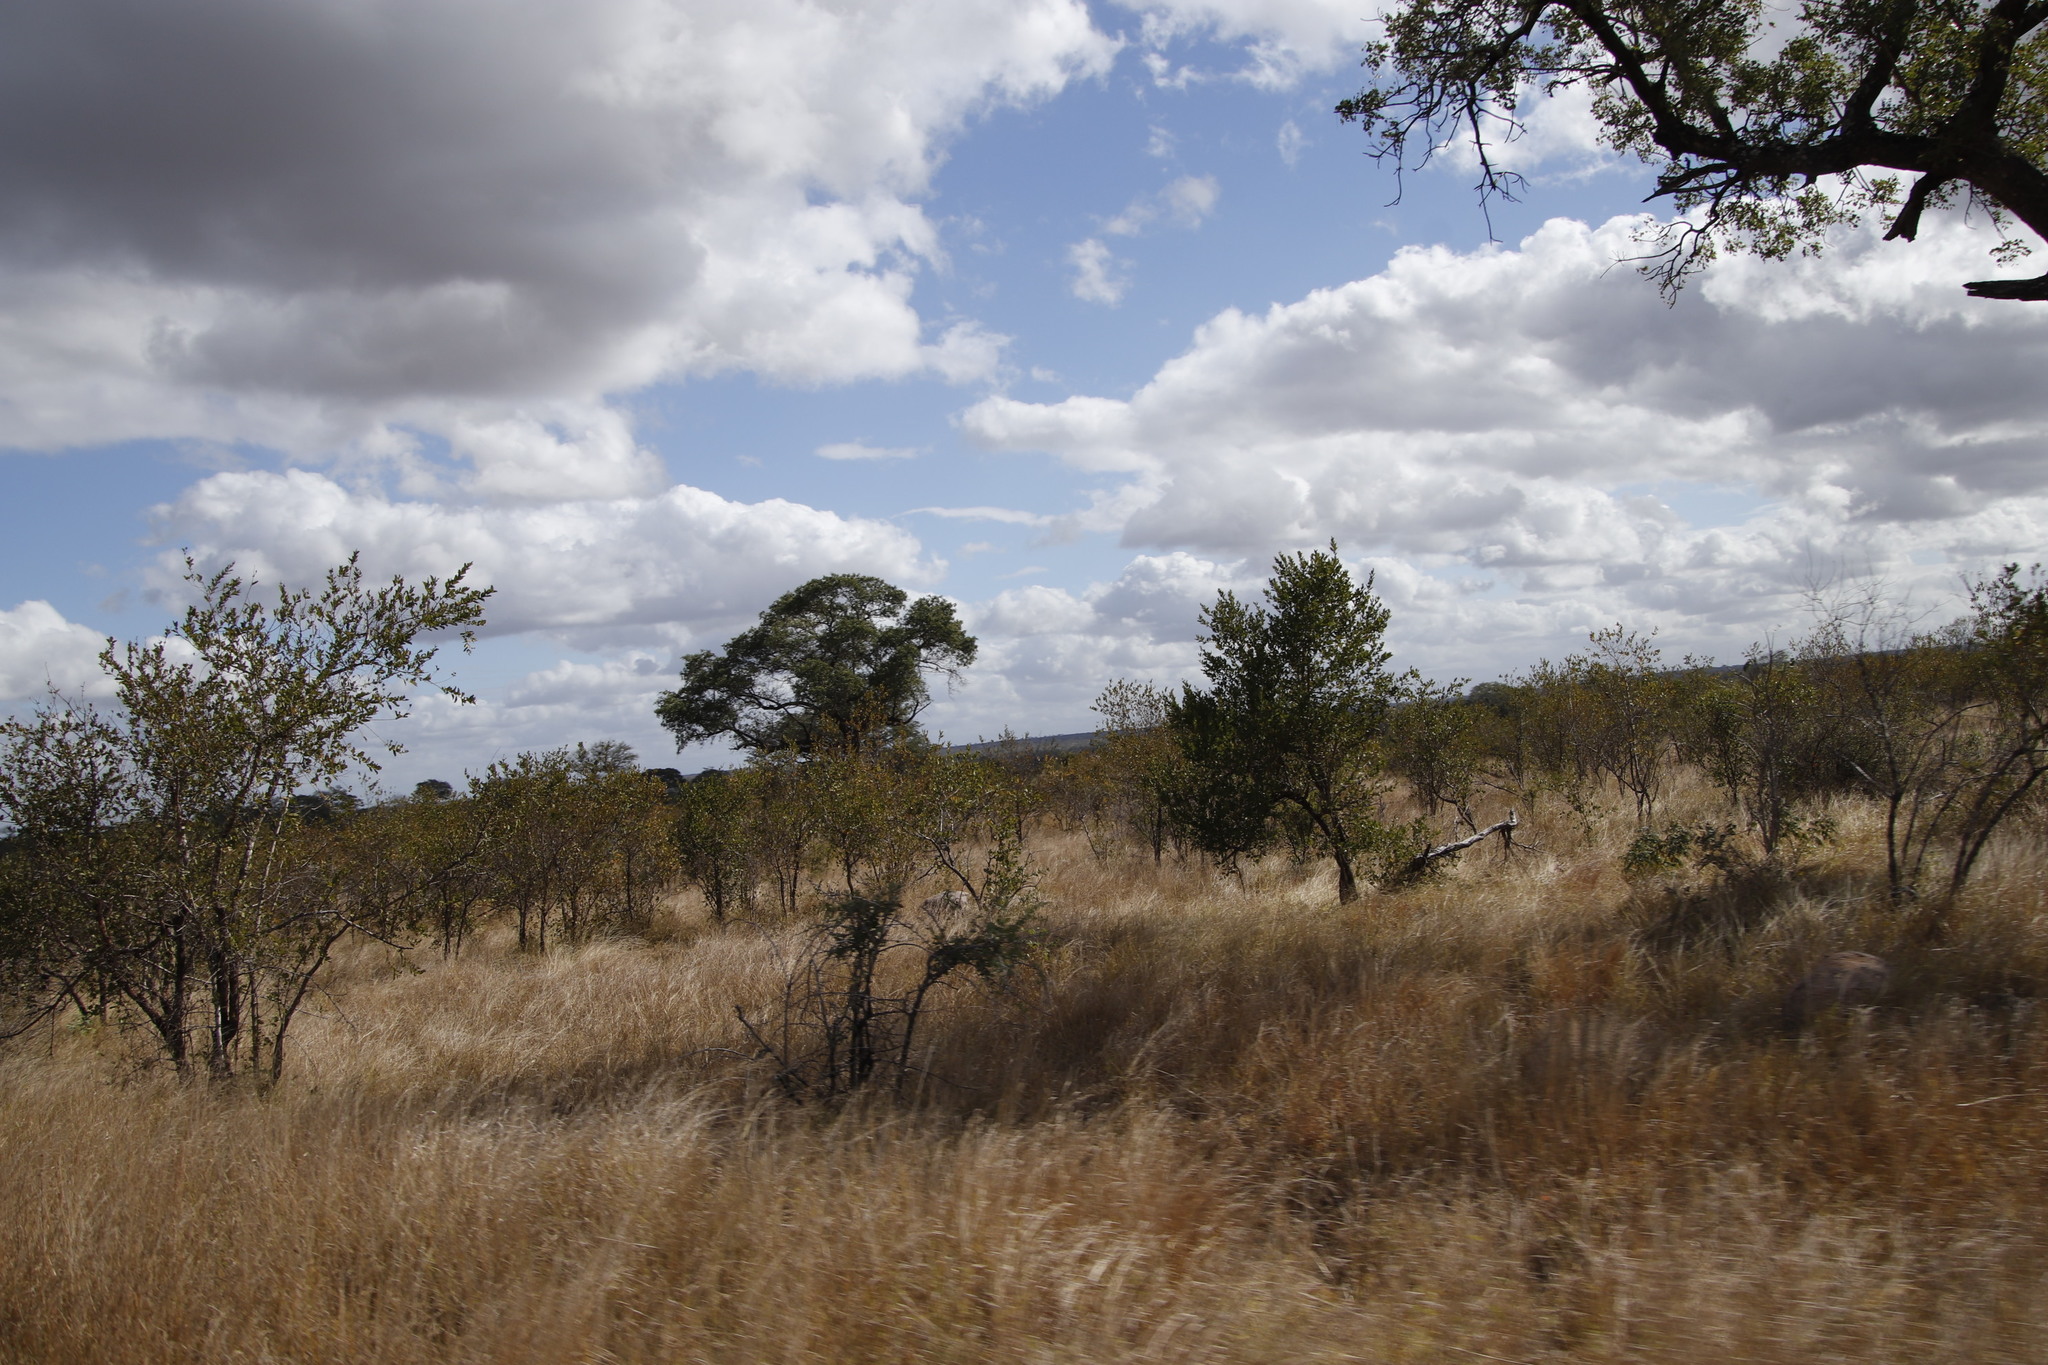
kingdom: Plantae
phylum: Tracheophyta
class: Magnoliopsida
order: Myrtales
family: Combretaceae
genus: Combretum
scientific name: Combretum apiculatum
